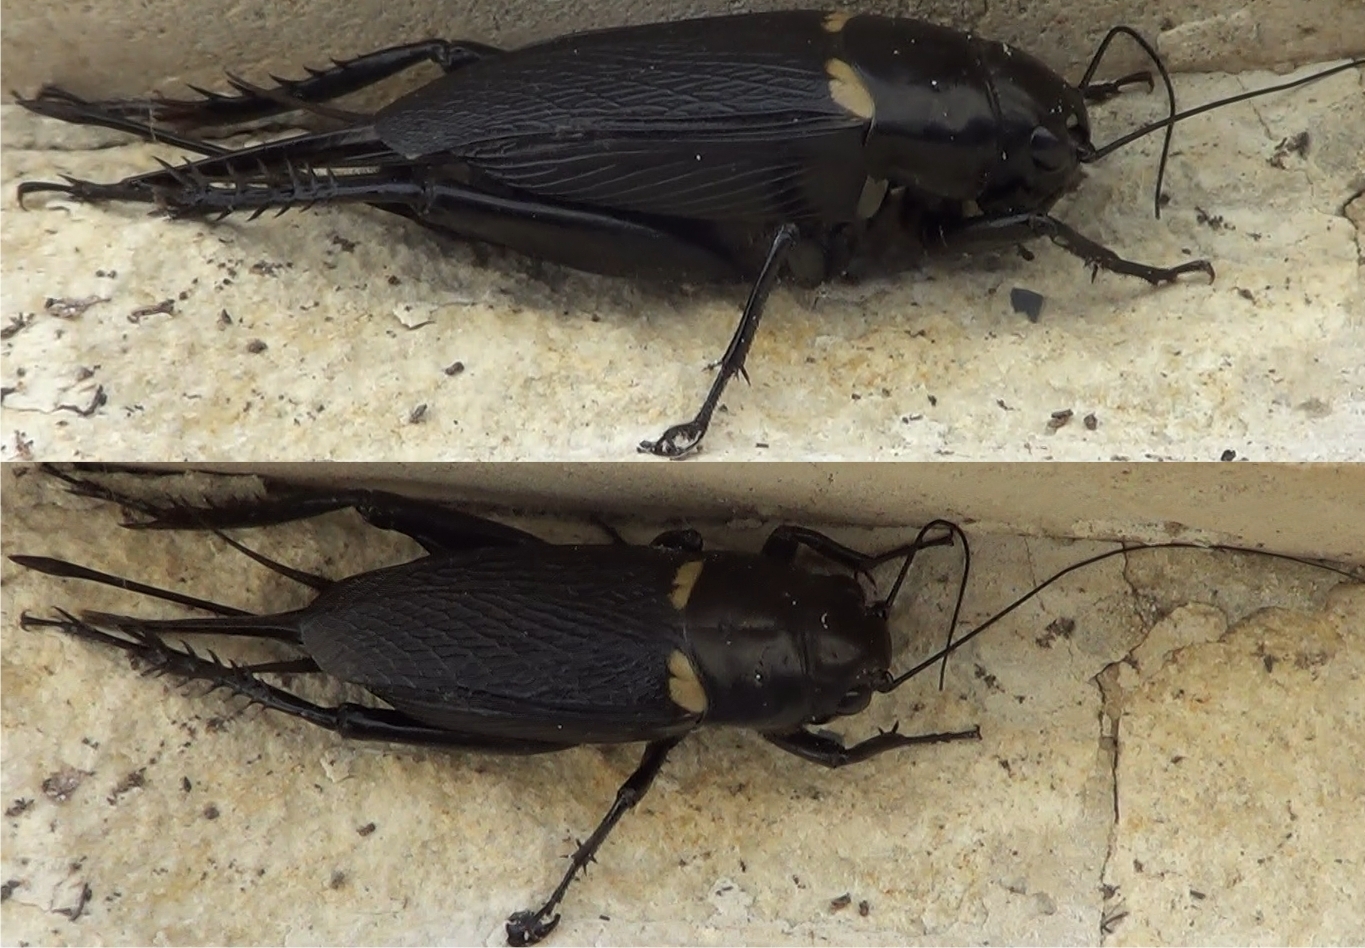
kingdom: Animalia
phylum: Arthropoda
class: Insecta
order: Orthoptera
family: Gryllidae
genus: Gryllus
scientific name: Gryllus bimaculatus
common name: Two-spotted cricket
